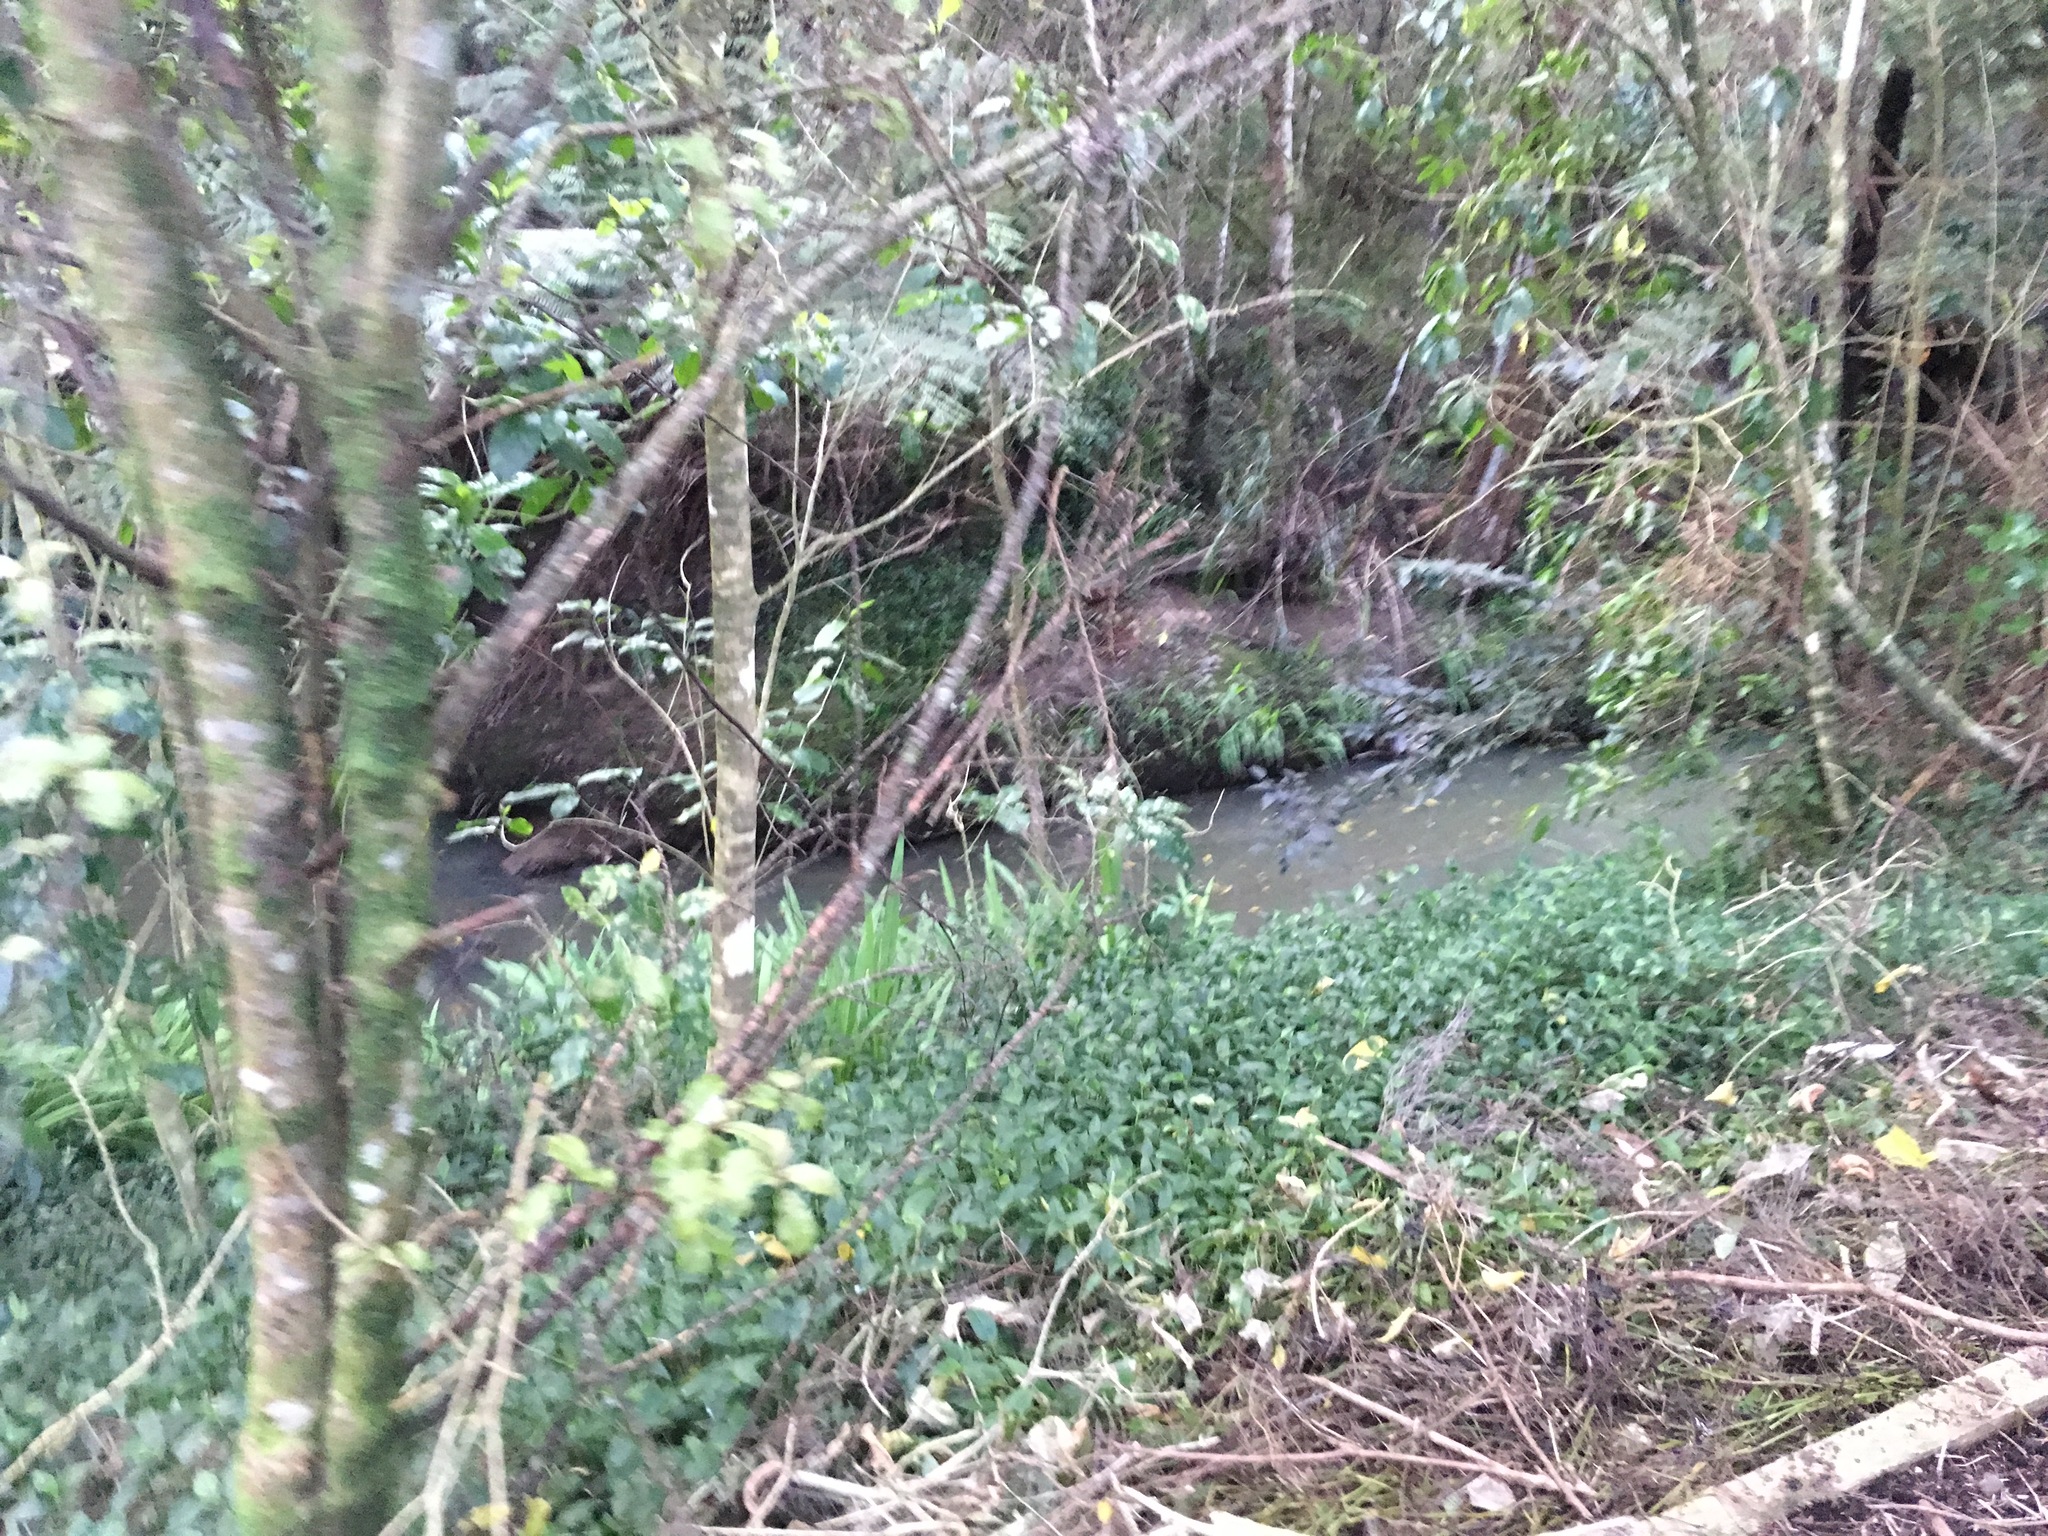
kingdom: Plantae
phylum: Tracheophyta
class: Liliopsida
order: Commelinales
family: Commelinaceae
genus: Tradescantia
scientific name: Tradescantia fluminensis
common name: Wandering-jew
